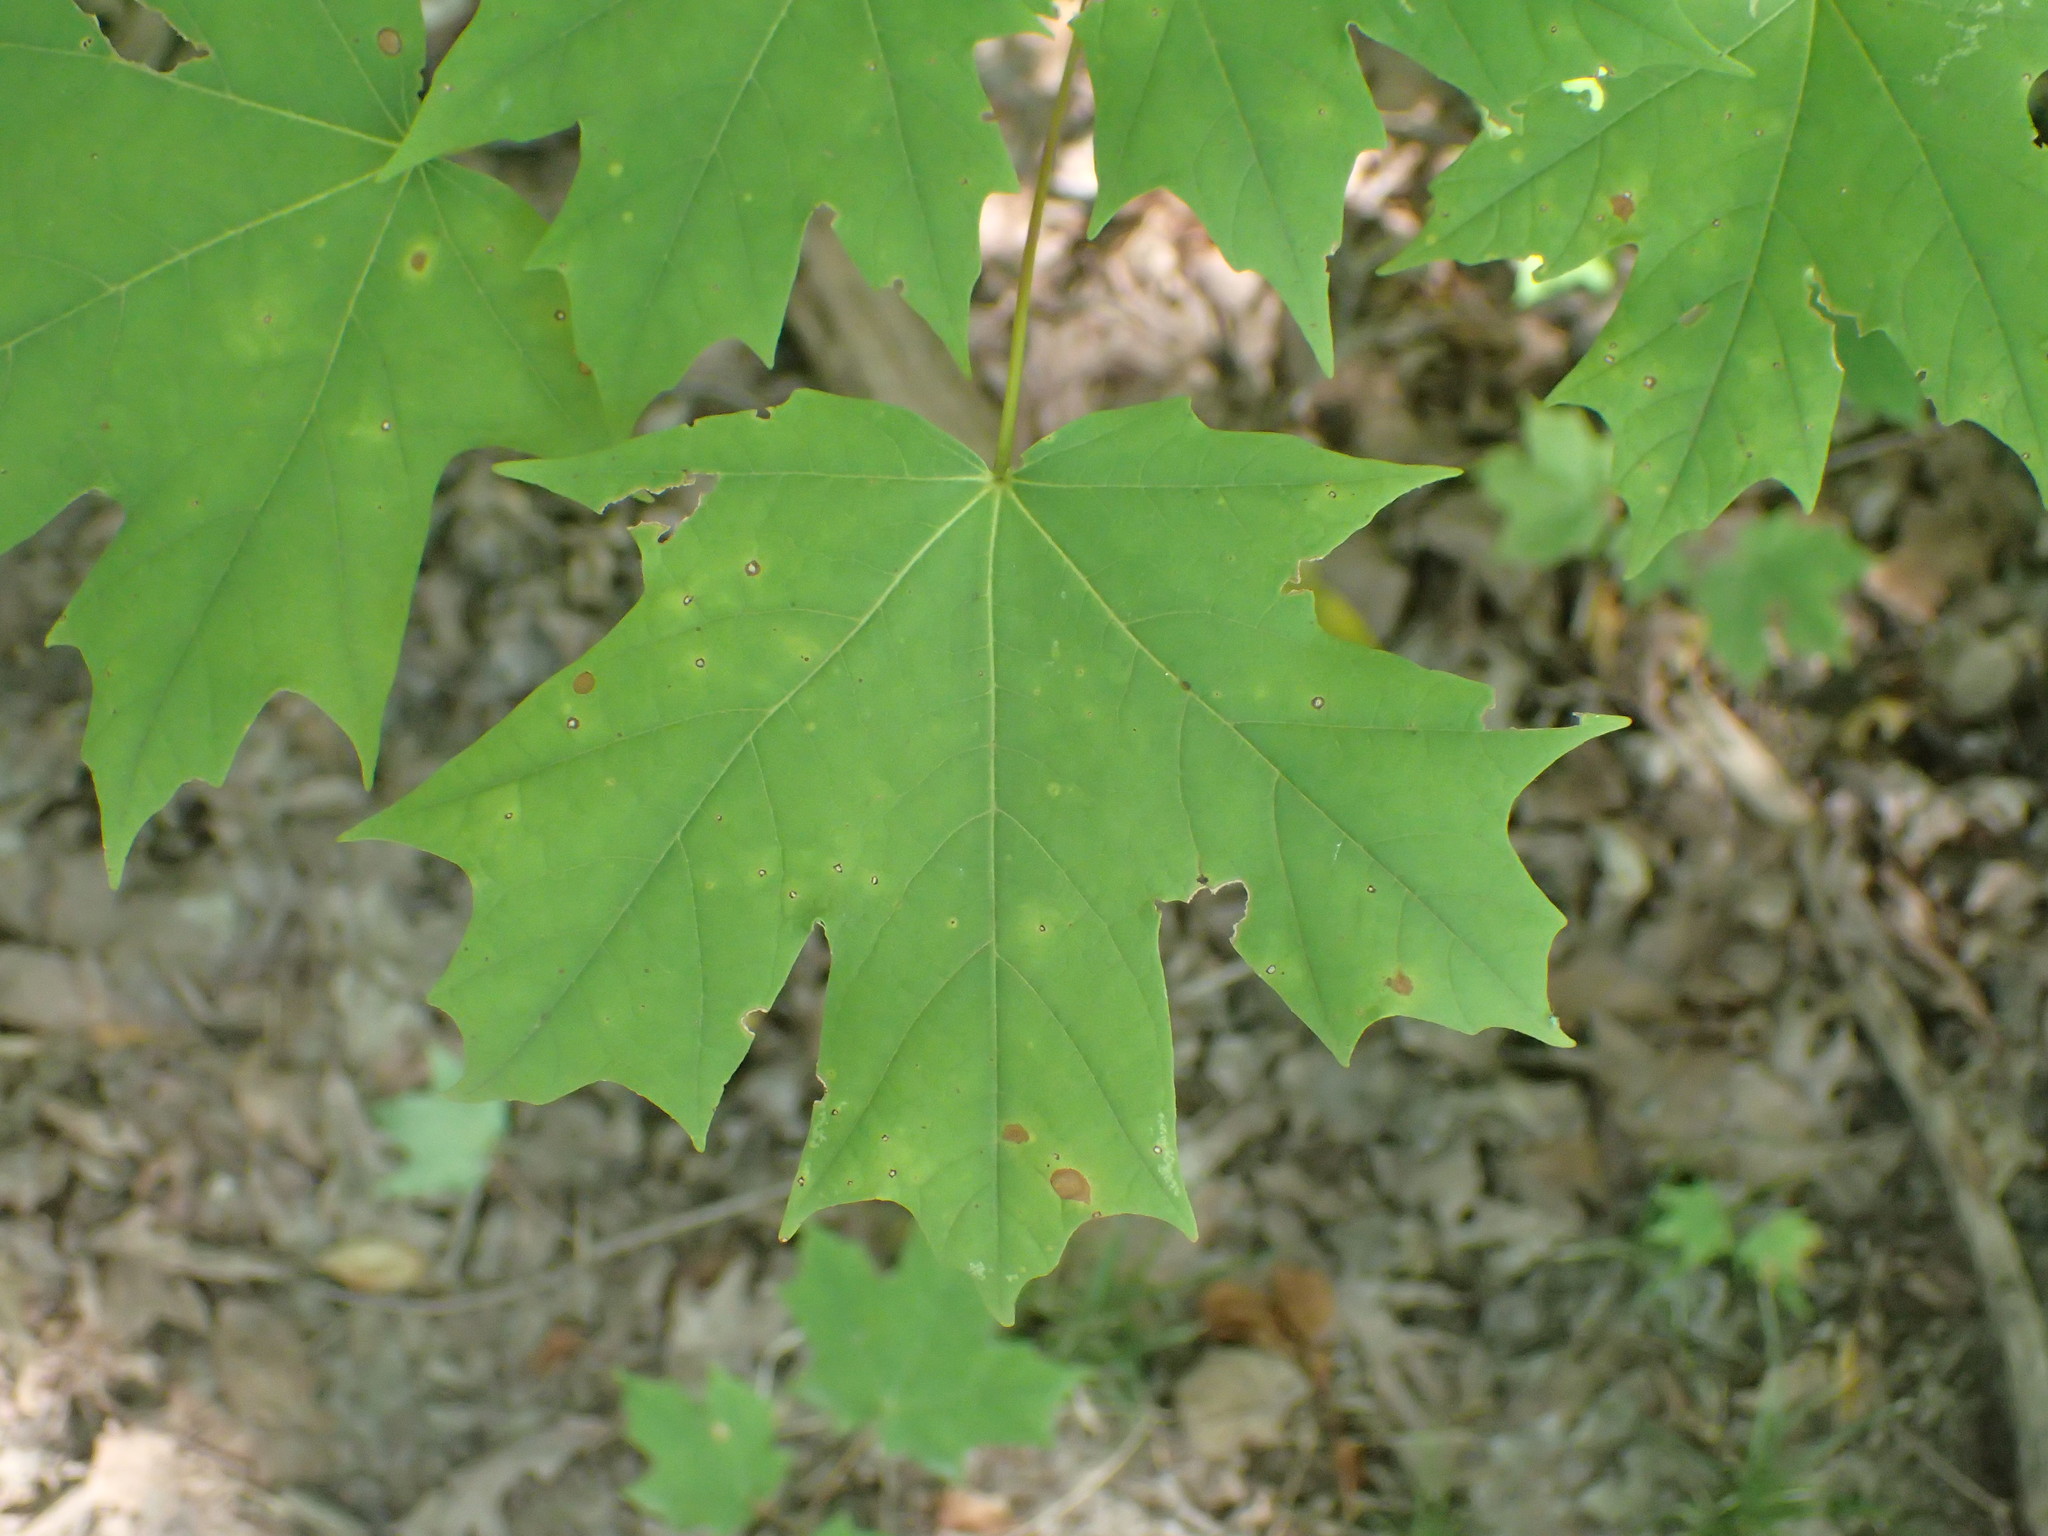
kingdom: Plantae
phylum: Tracheophyta
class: Magnoliopsida
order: Sapindales
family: Sapindaceae
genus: Acer
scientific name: Acer saccharum
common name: Sugar maple
